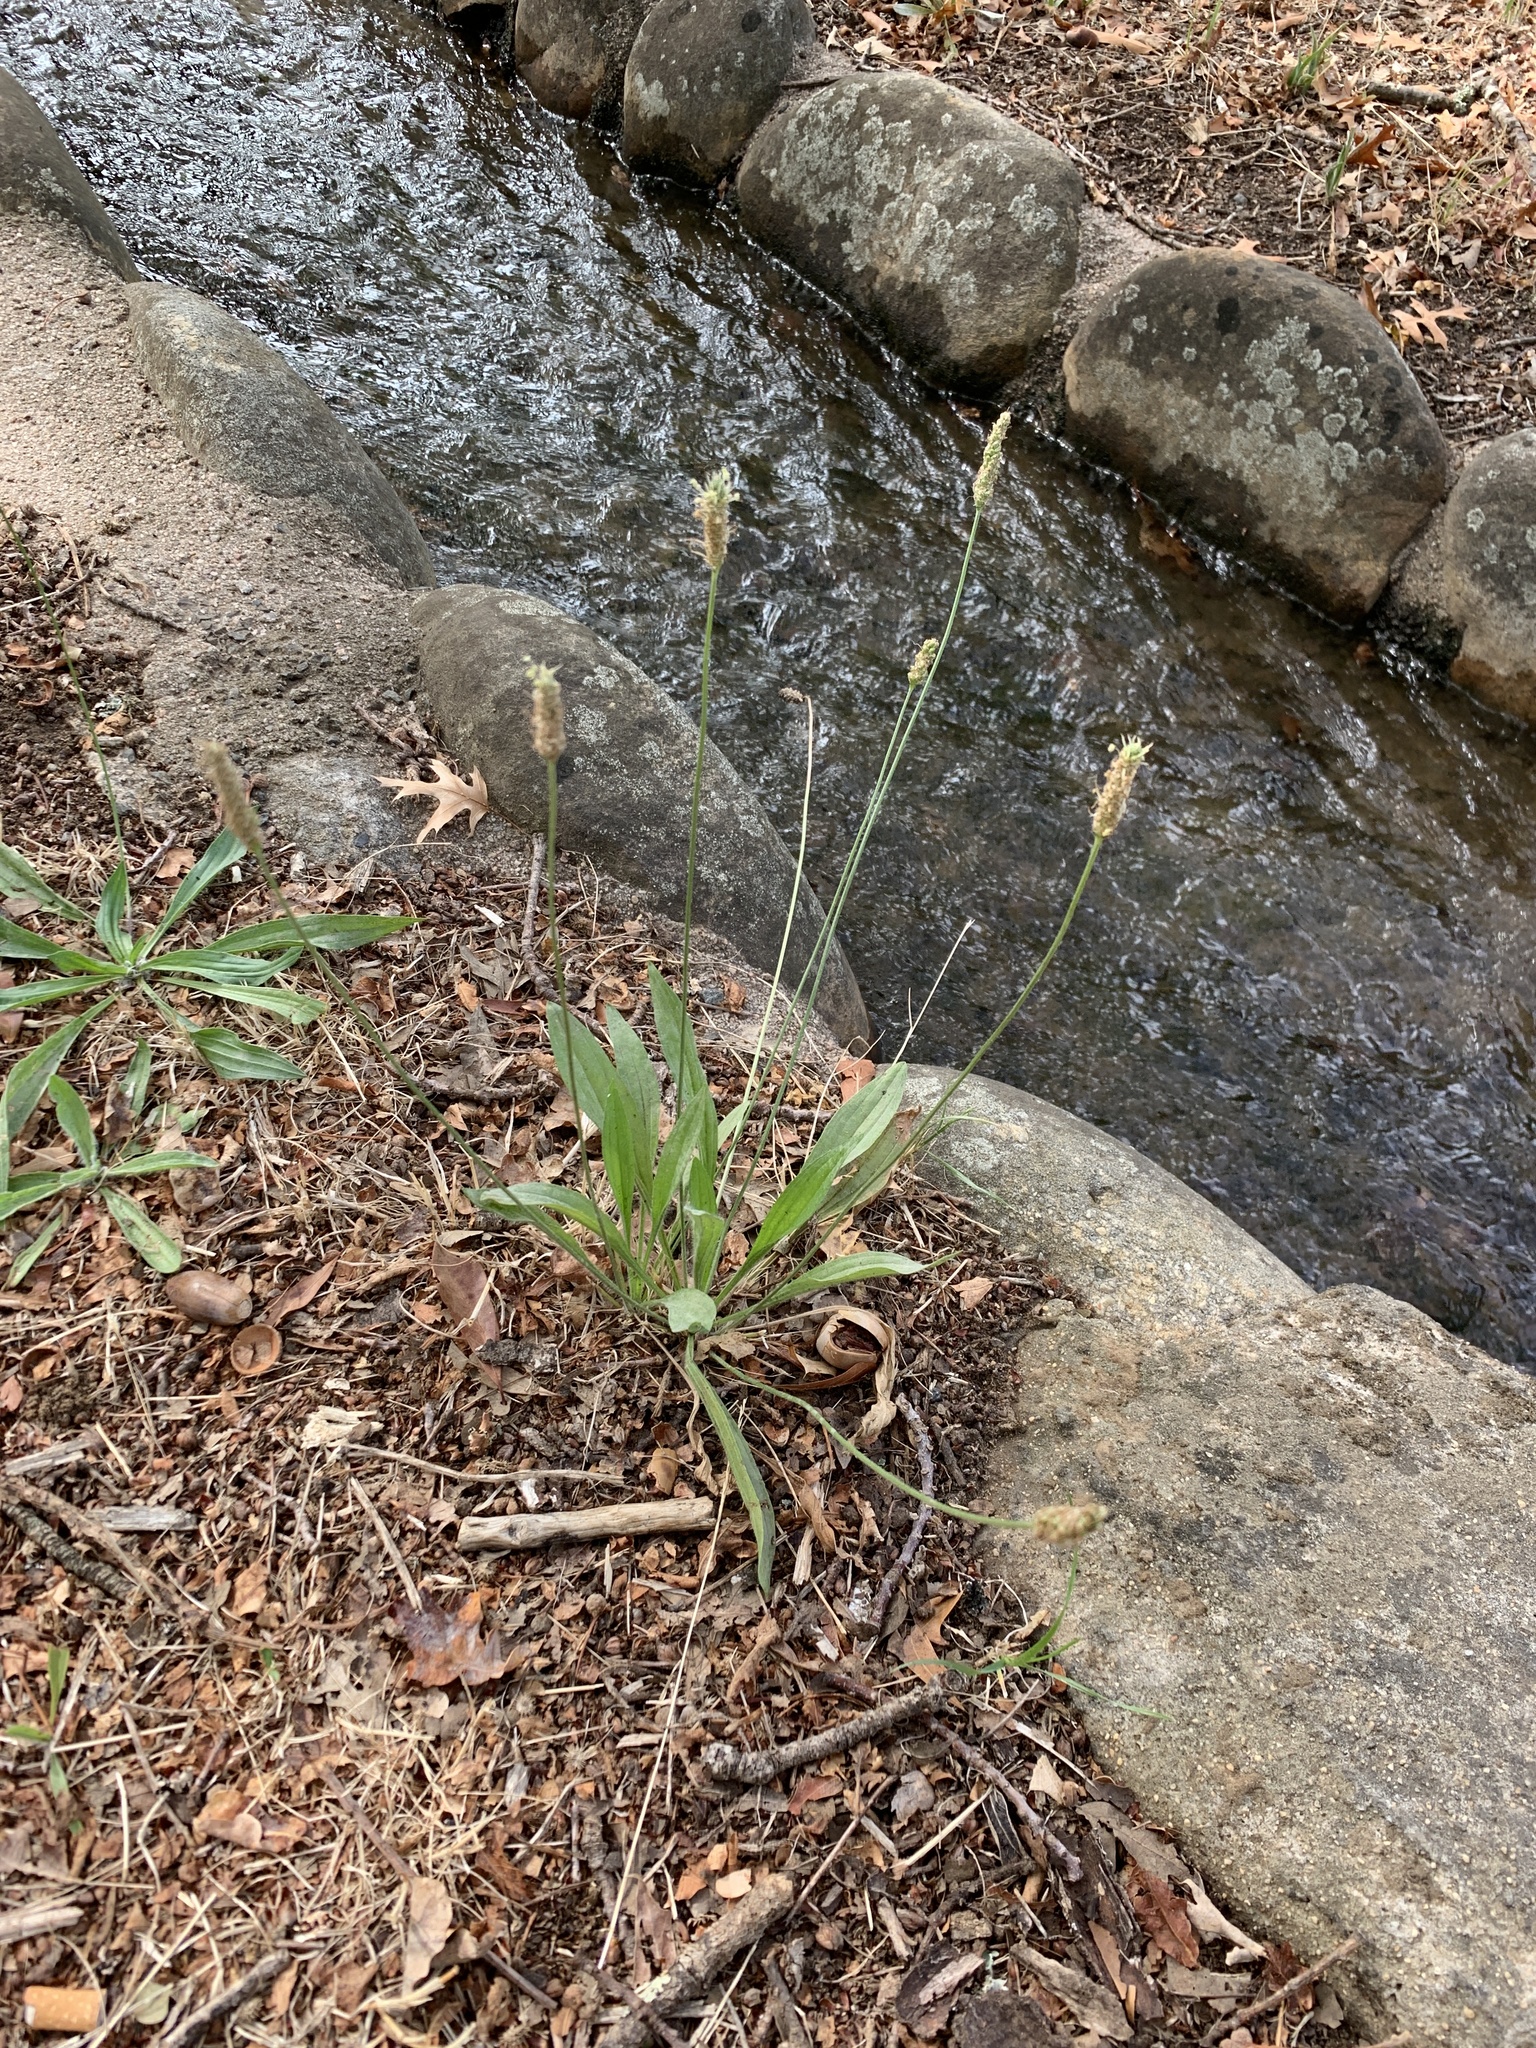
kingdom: Plantae
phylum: Tracheophyta
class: Magnoliopsida
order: Lamiales
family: Plantaginaceae
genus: Plantago
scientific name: Plantago lanceolata
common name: Ribwort plantain
